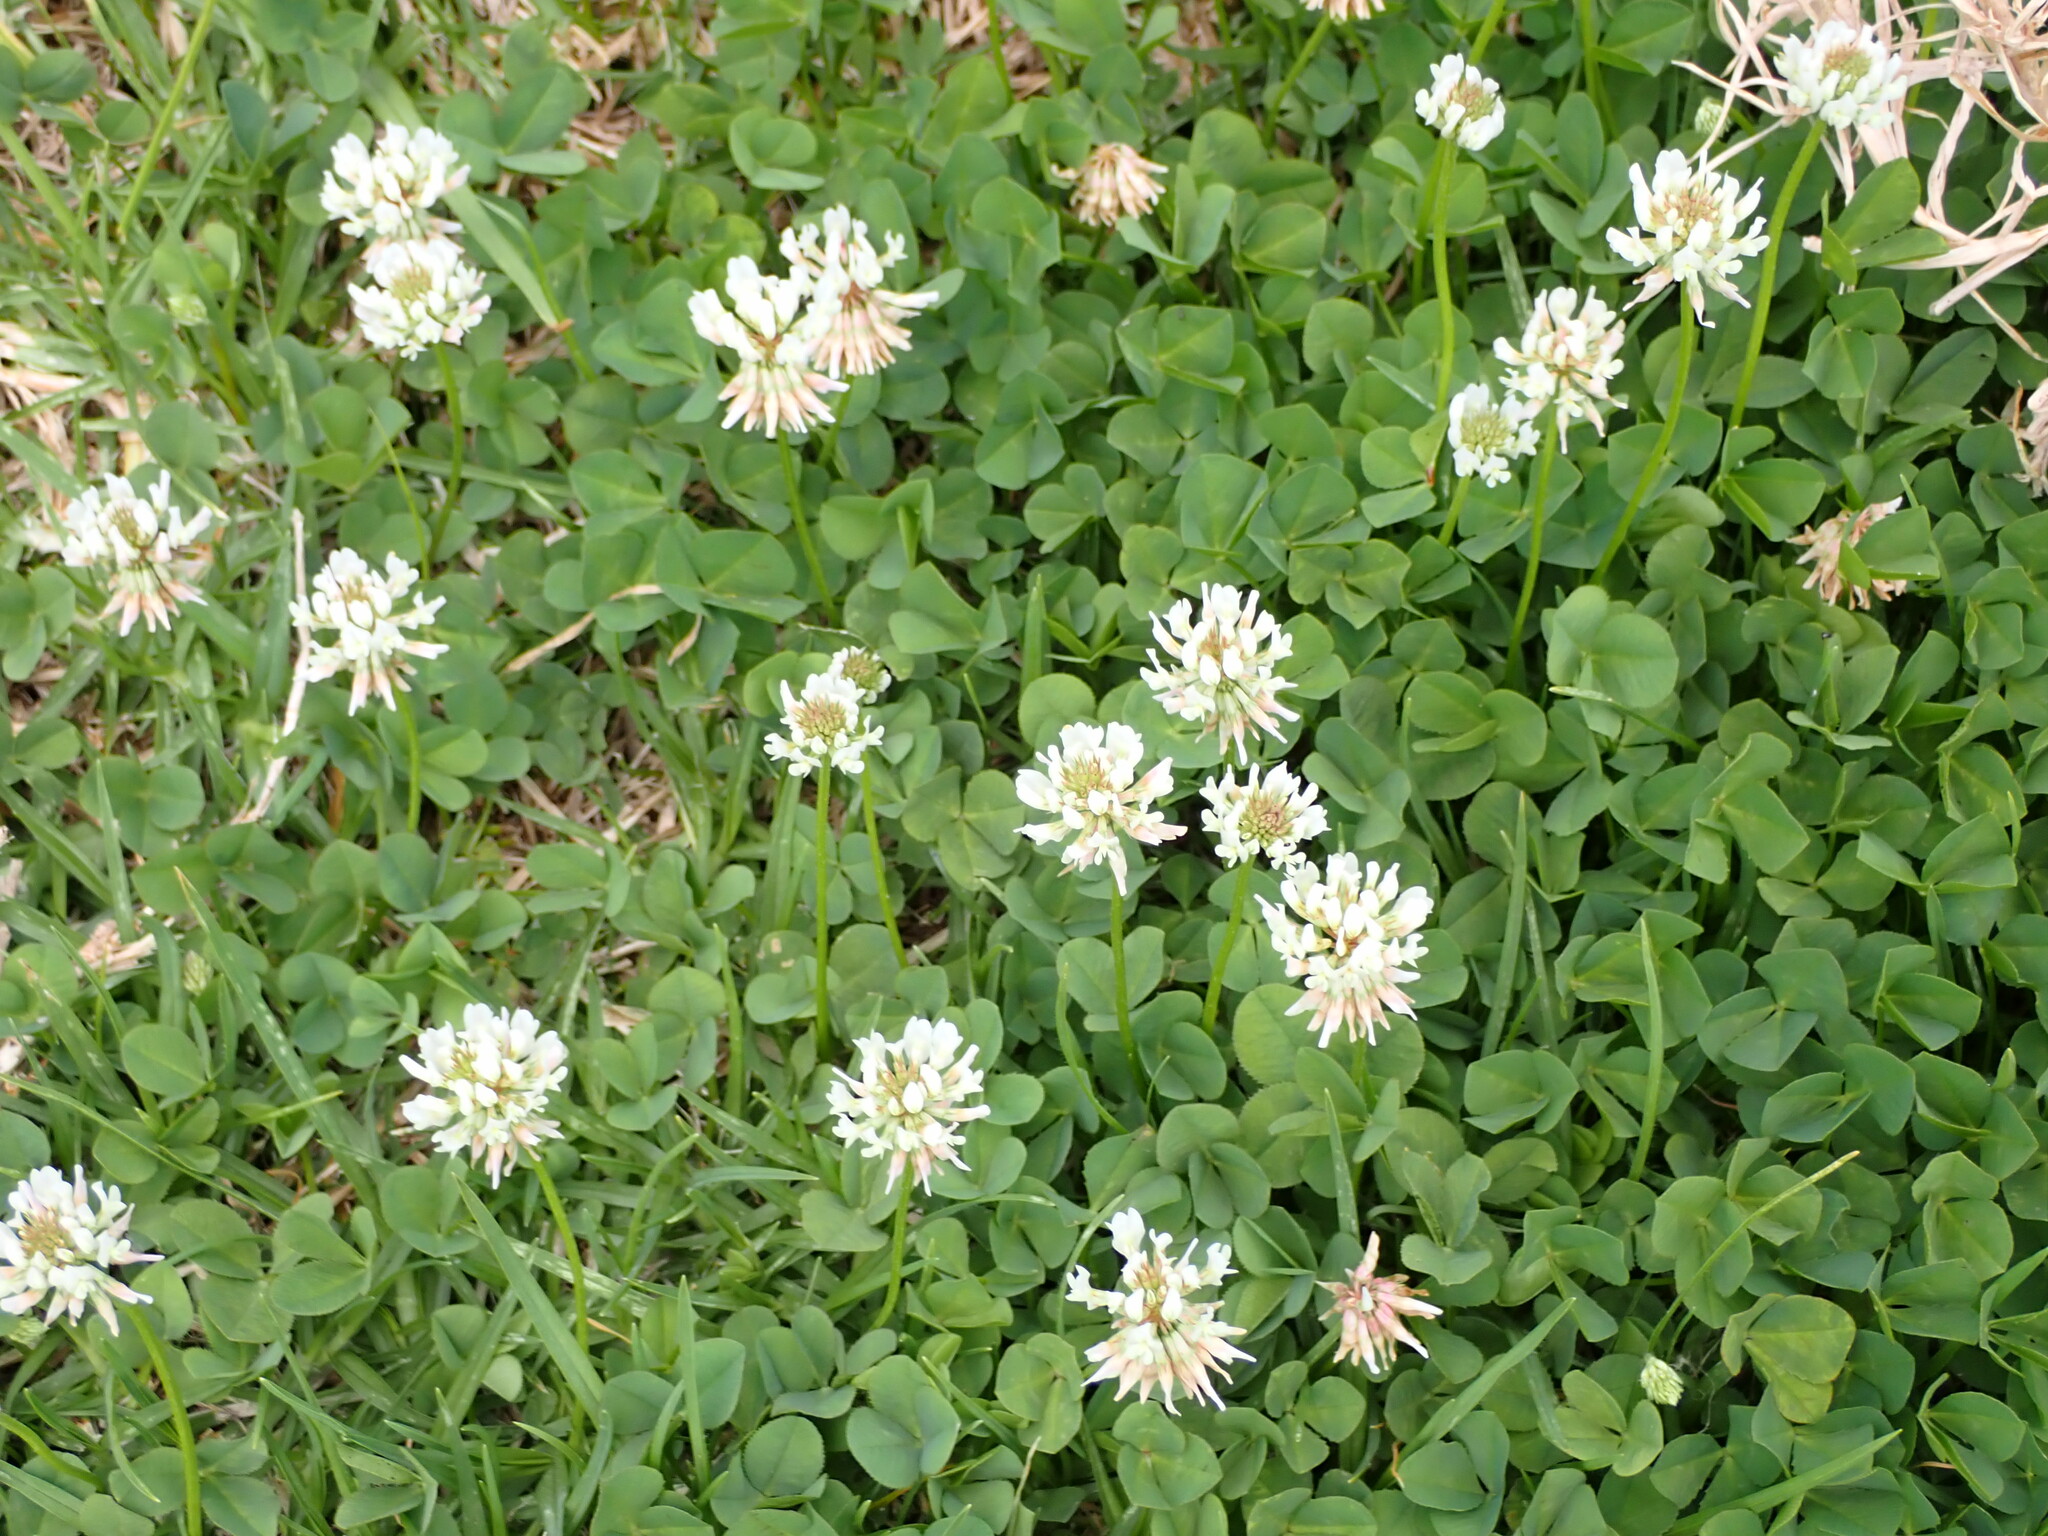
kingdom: Plantae
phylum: Tracheophyta
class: Magnoliopsida
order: Fabales
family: Fabaceae
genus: Trifolium
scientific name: Trifolium repens
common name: White clover
